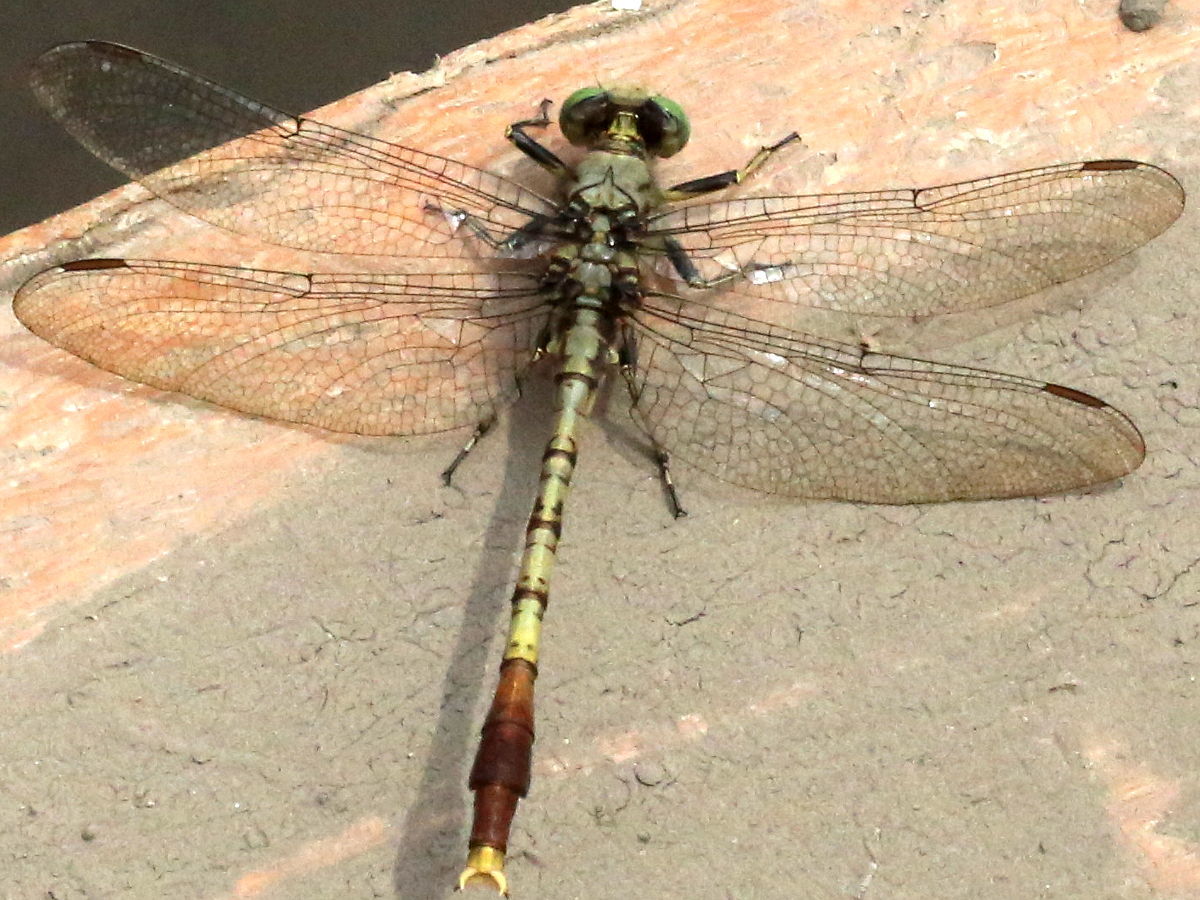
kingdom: Animalia
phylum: Arthropoda
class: Insecta
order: Odonata
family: Gomphidae
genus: Arigomphus
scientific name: Arigomphus submedianus
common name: Jade clubtail
